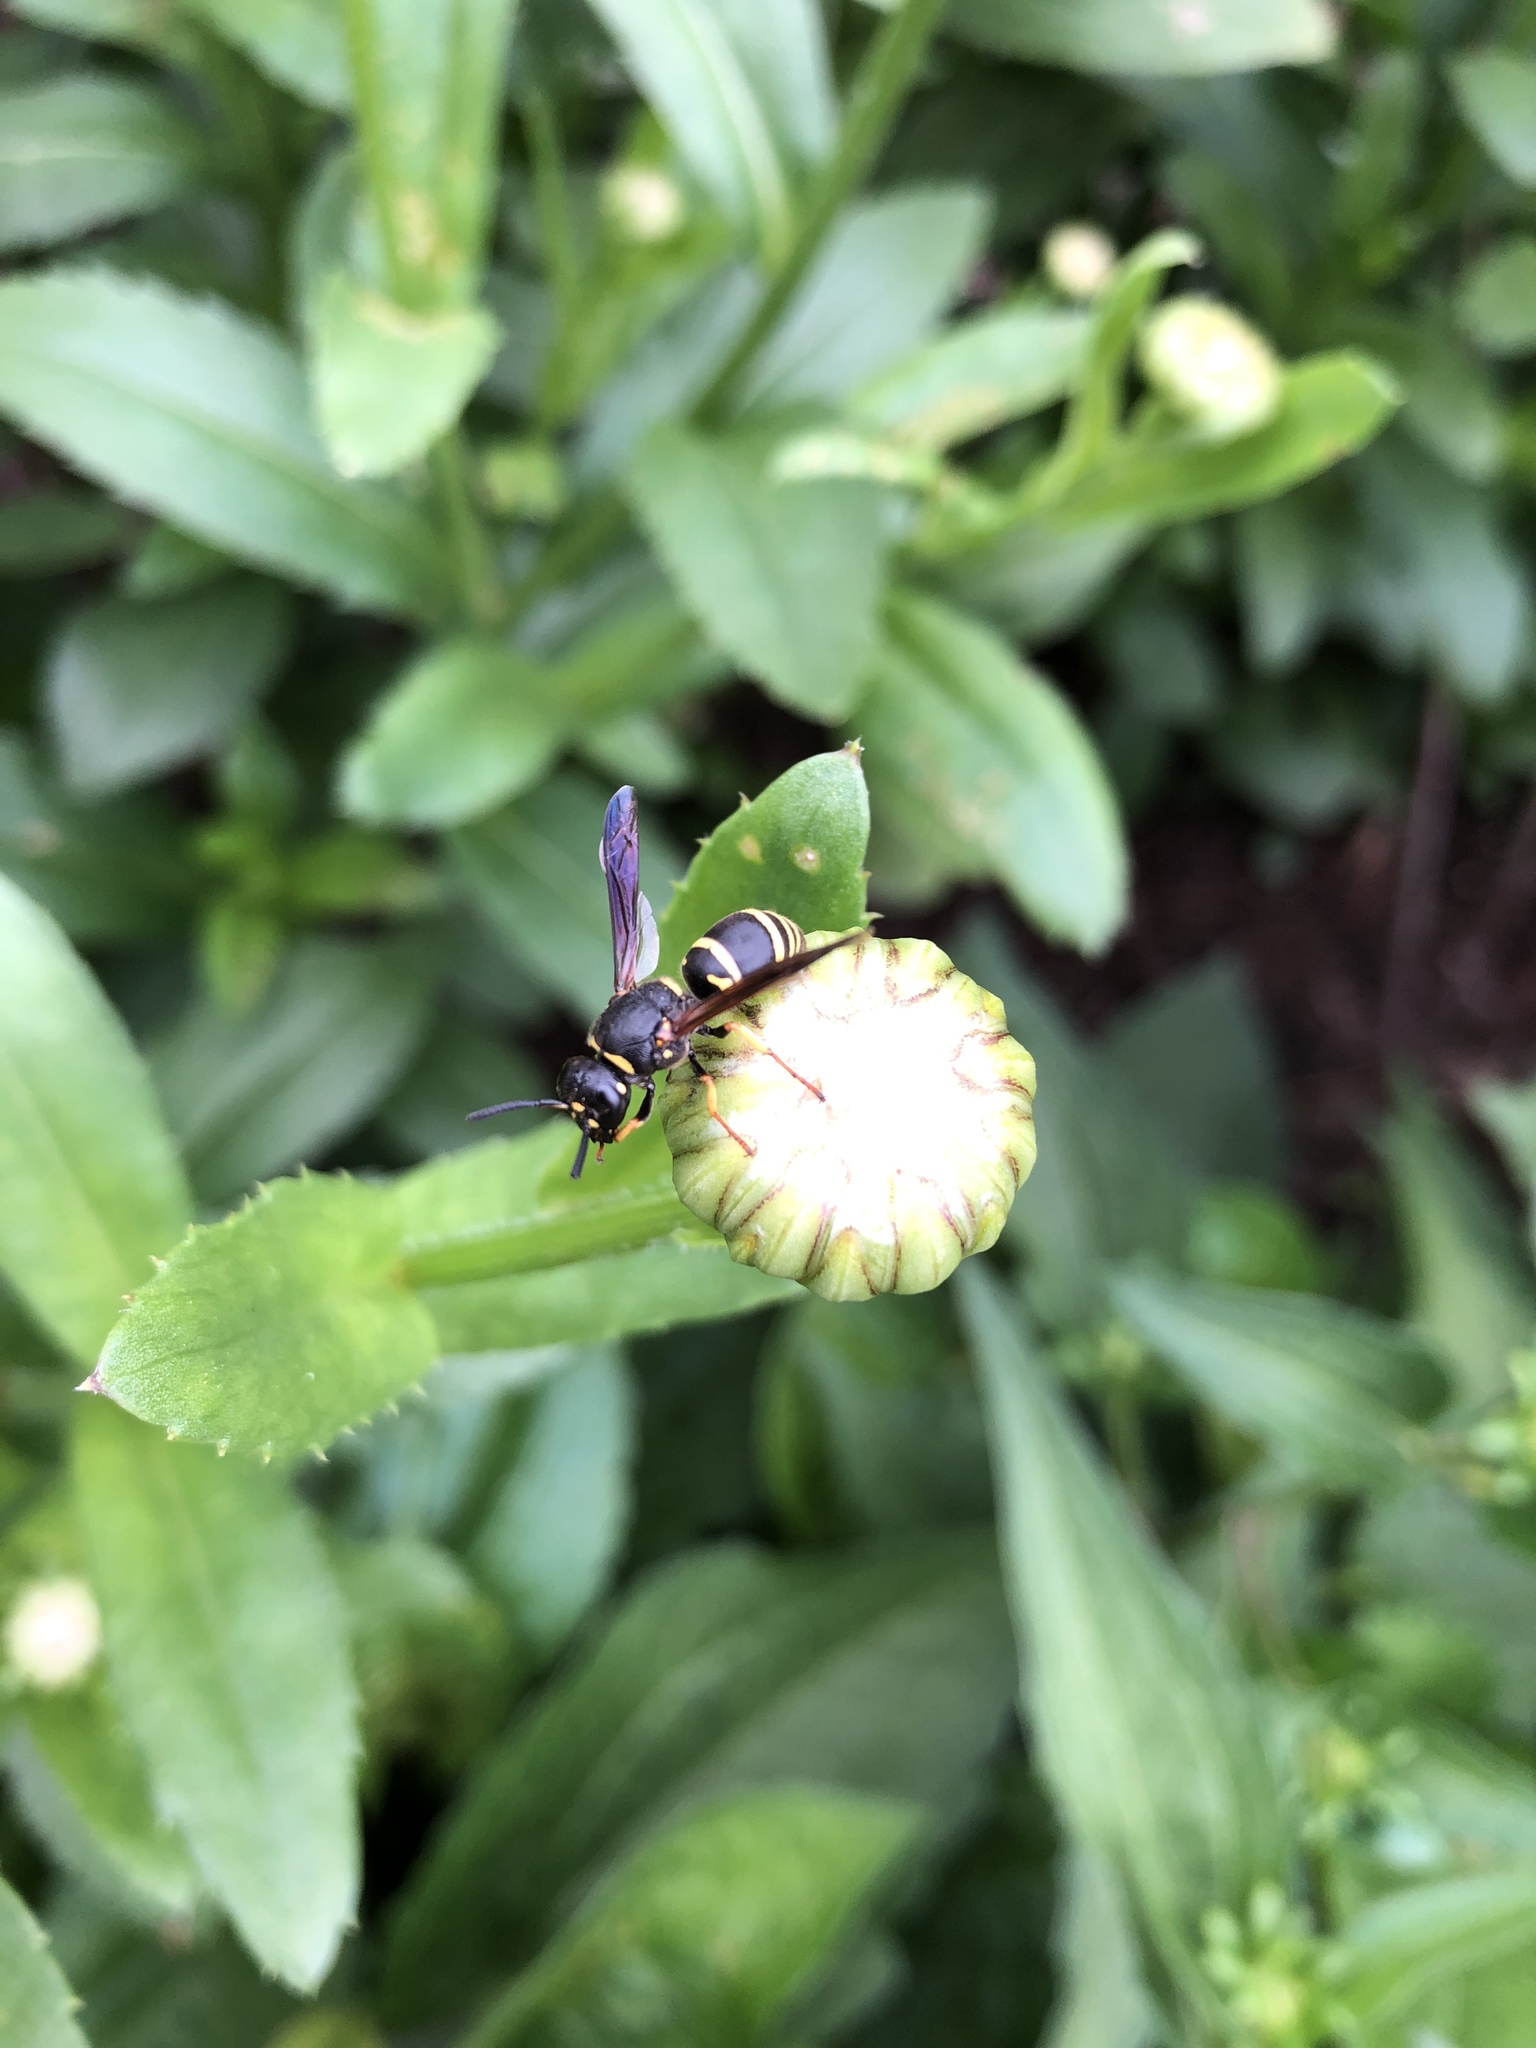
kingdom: Animalia
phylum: Arthropoda
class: Insecta
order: Hymenoptera
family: Eumenidae
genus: Euodynerus
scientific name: Euodynerus leucomelas
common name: Wasp
